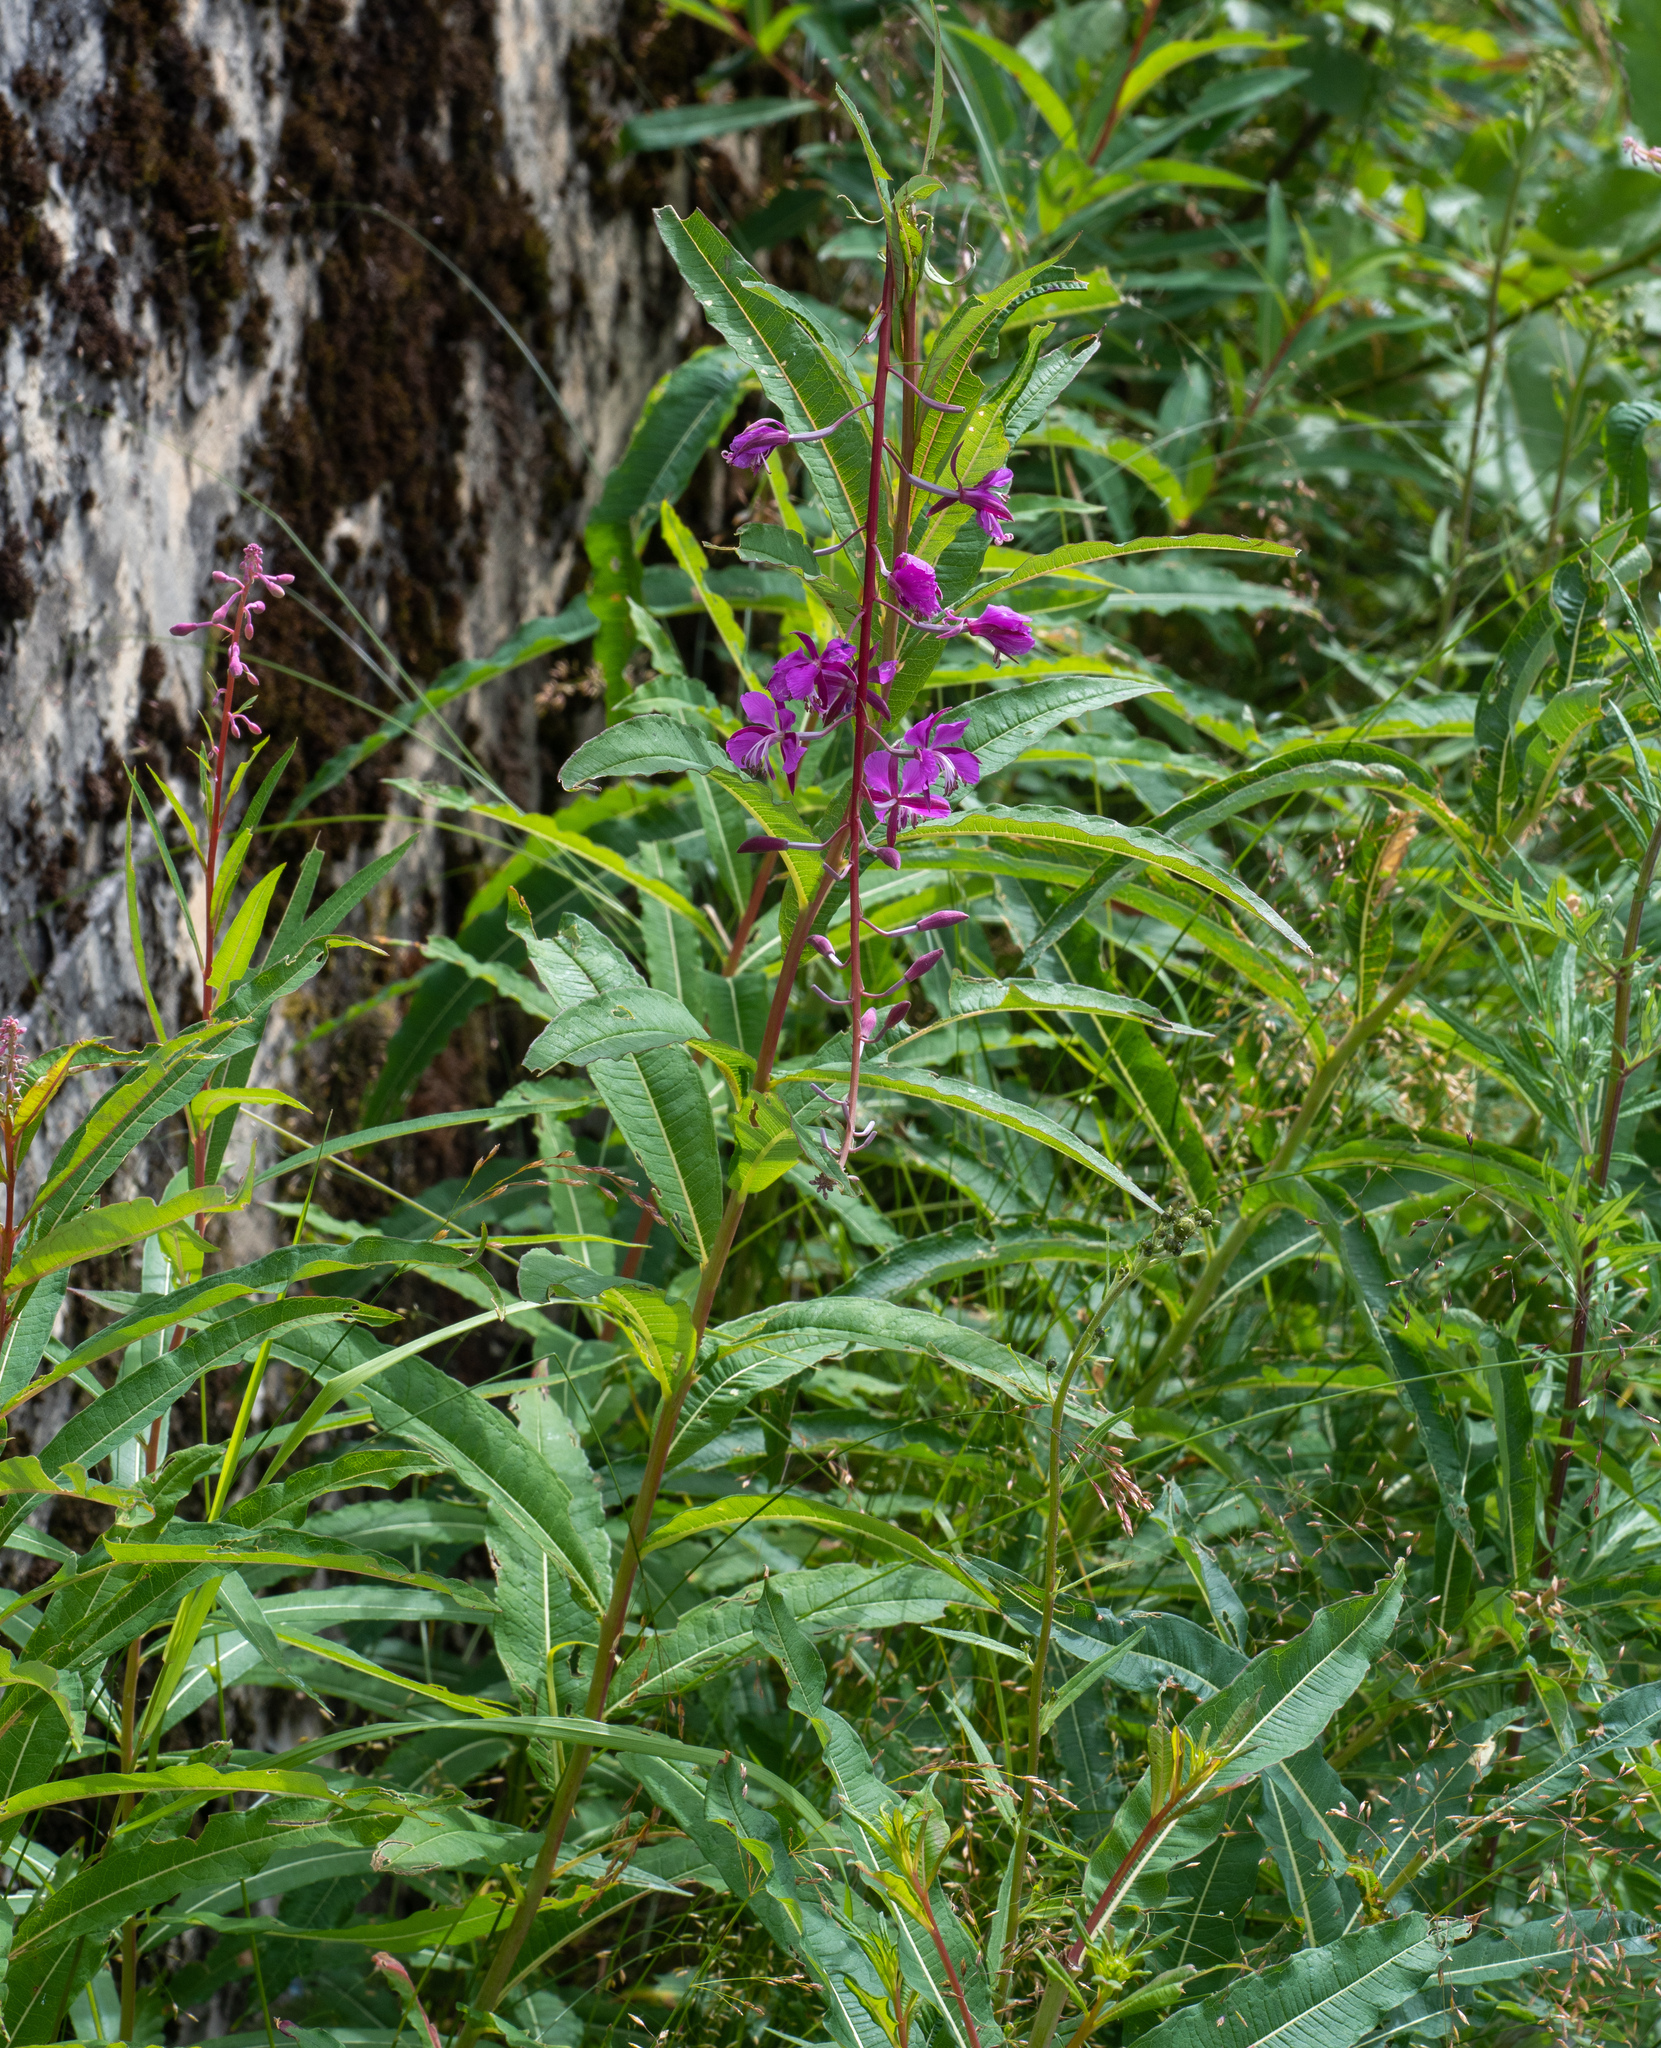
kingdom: Plantae
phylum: Tracheophyta
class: Magnoliopsida
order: Myrtales
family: Onagraceae
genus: Chamaenerion
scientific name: Chamaenerion angustifolium
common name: Fireweed
